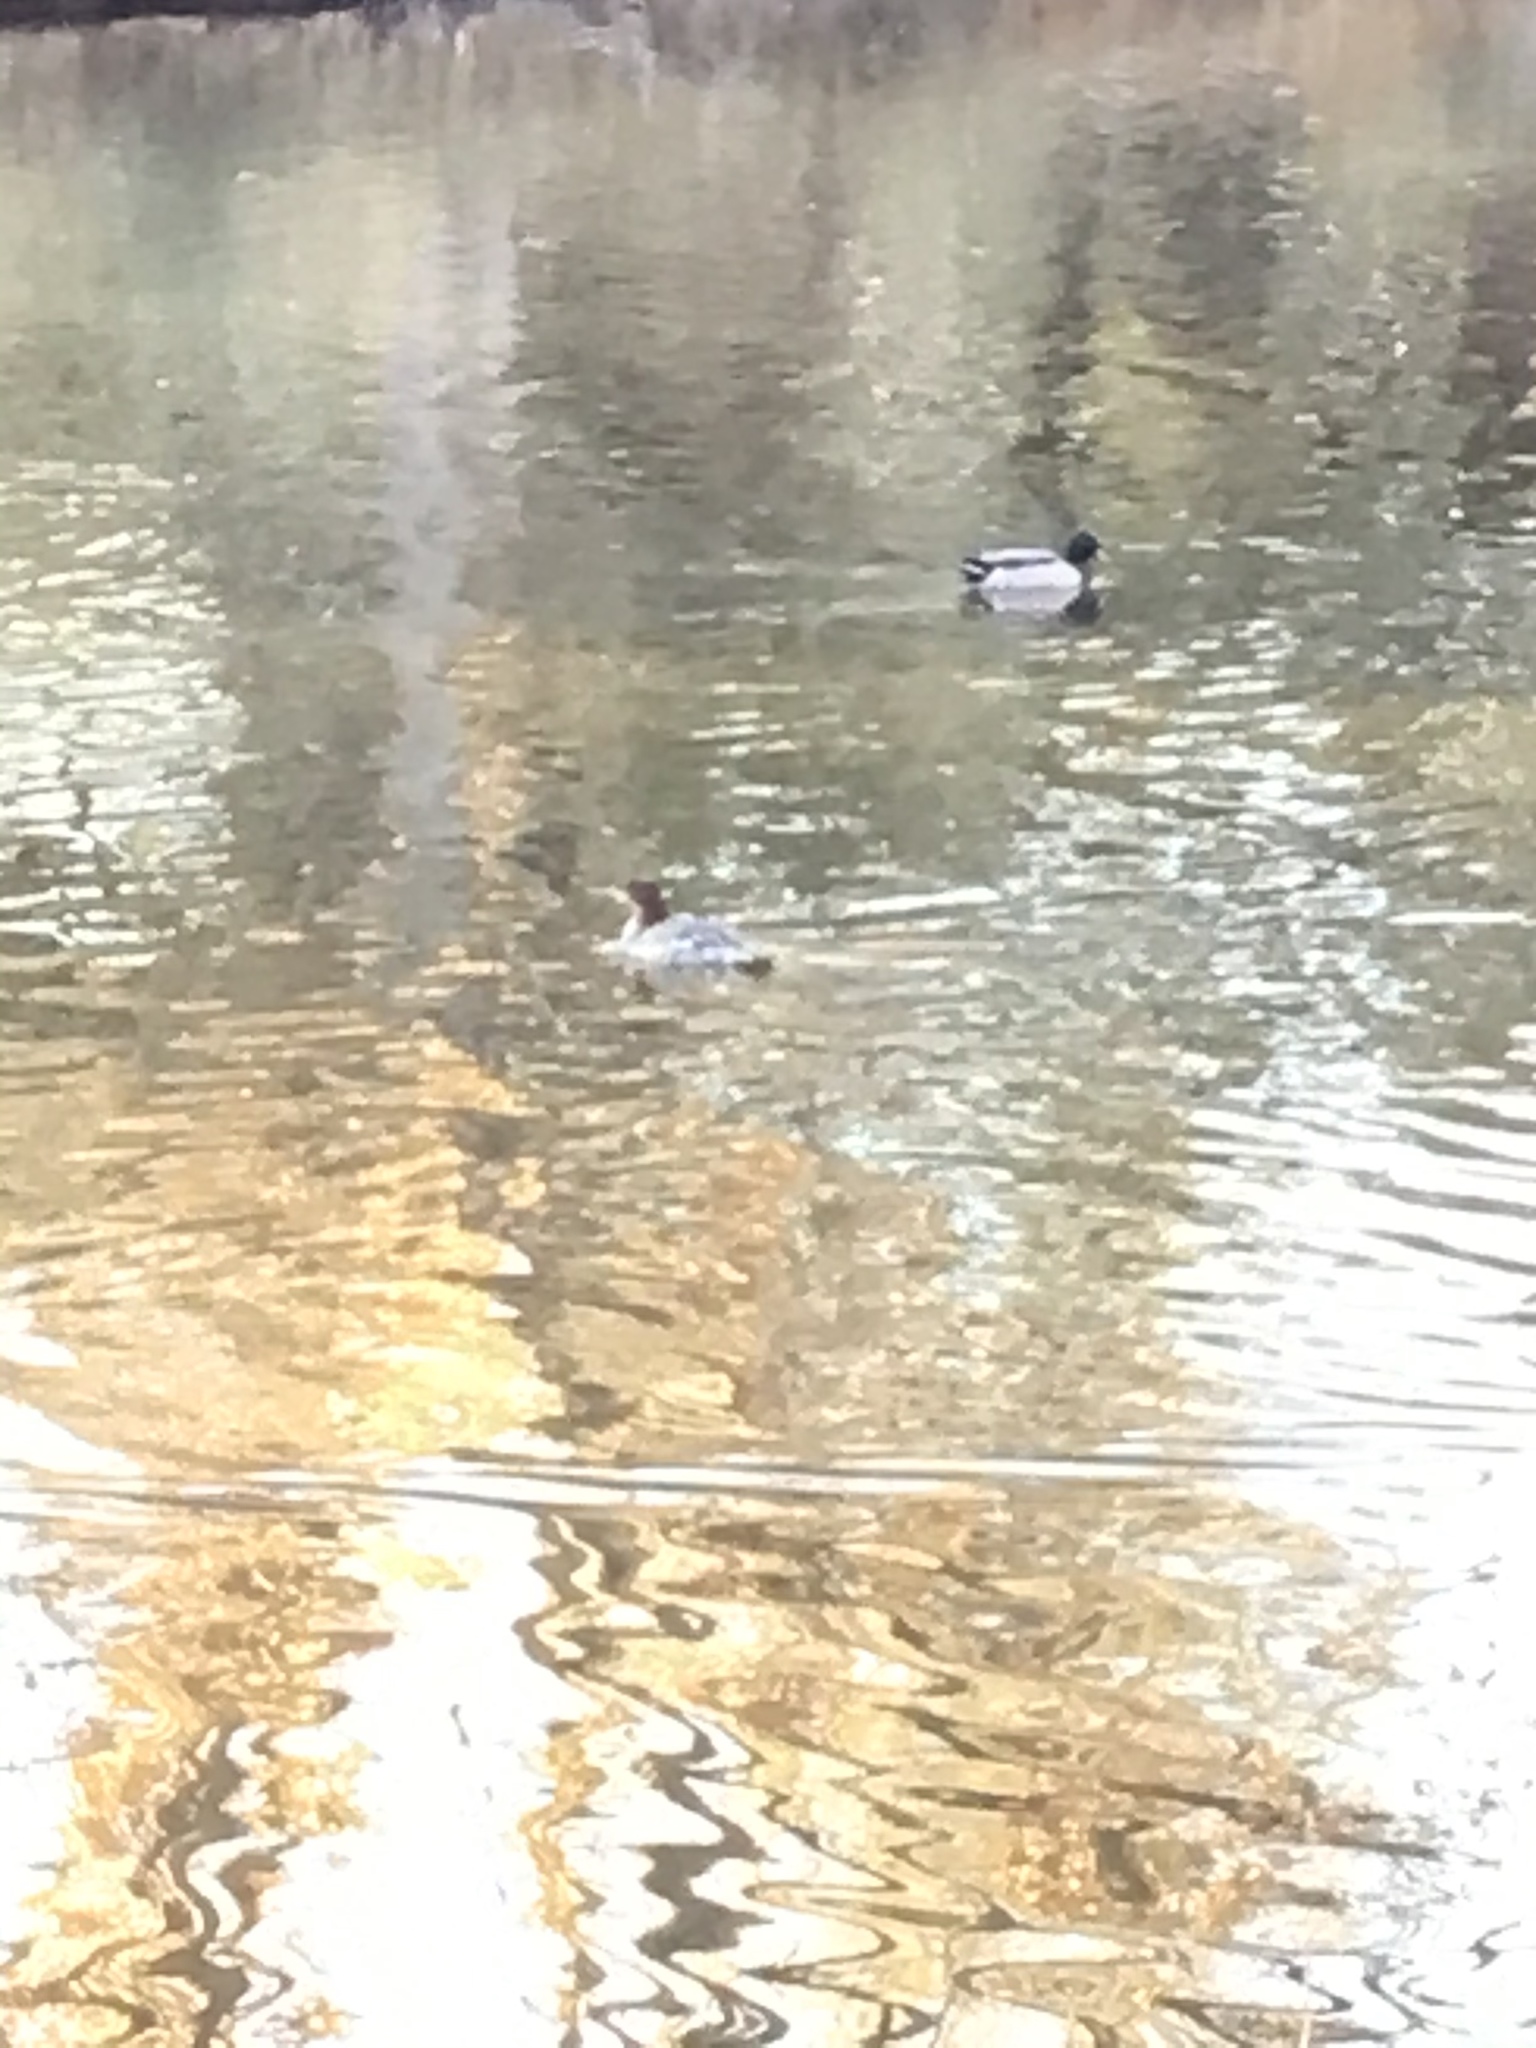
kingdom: Animalia
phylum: Chordata
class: Aves
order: Anseriformes
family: Anatidae
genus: Mergus
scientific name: Mergus merganser
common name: Common merganser
